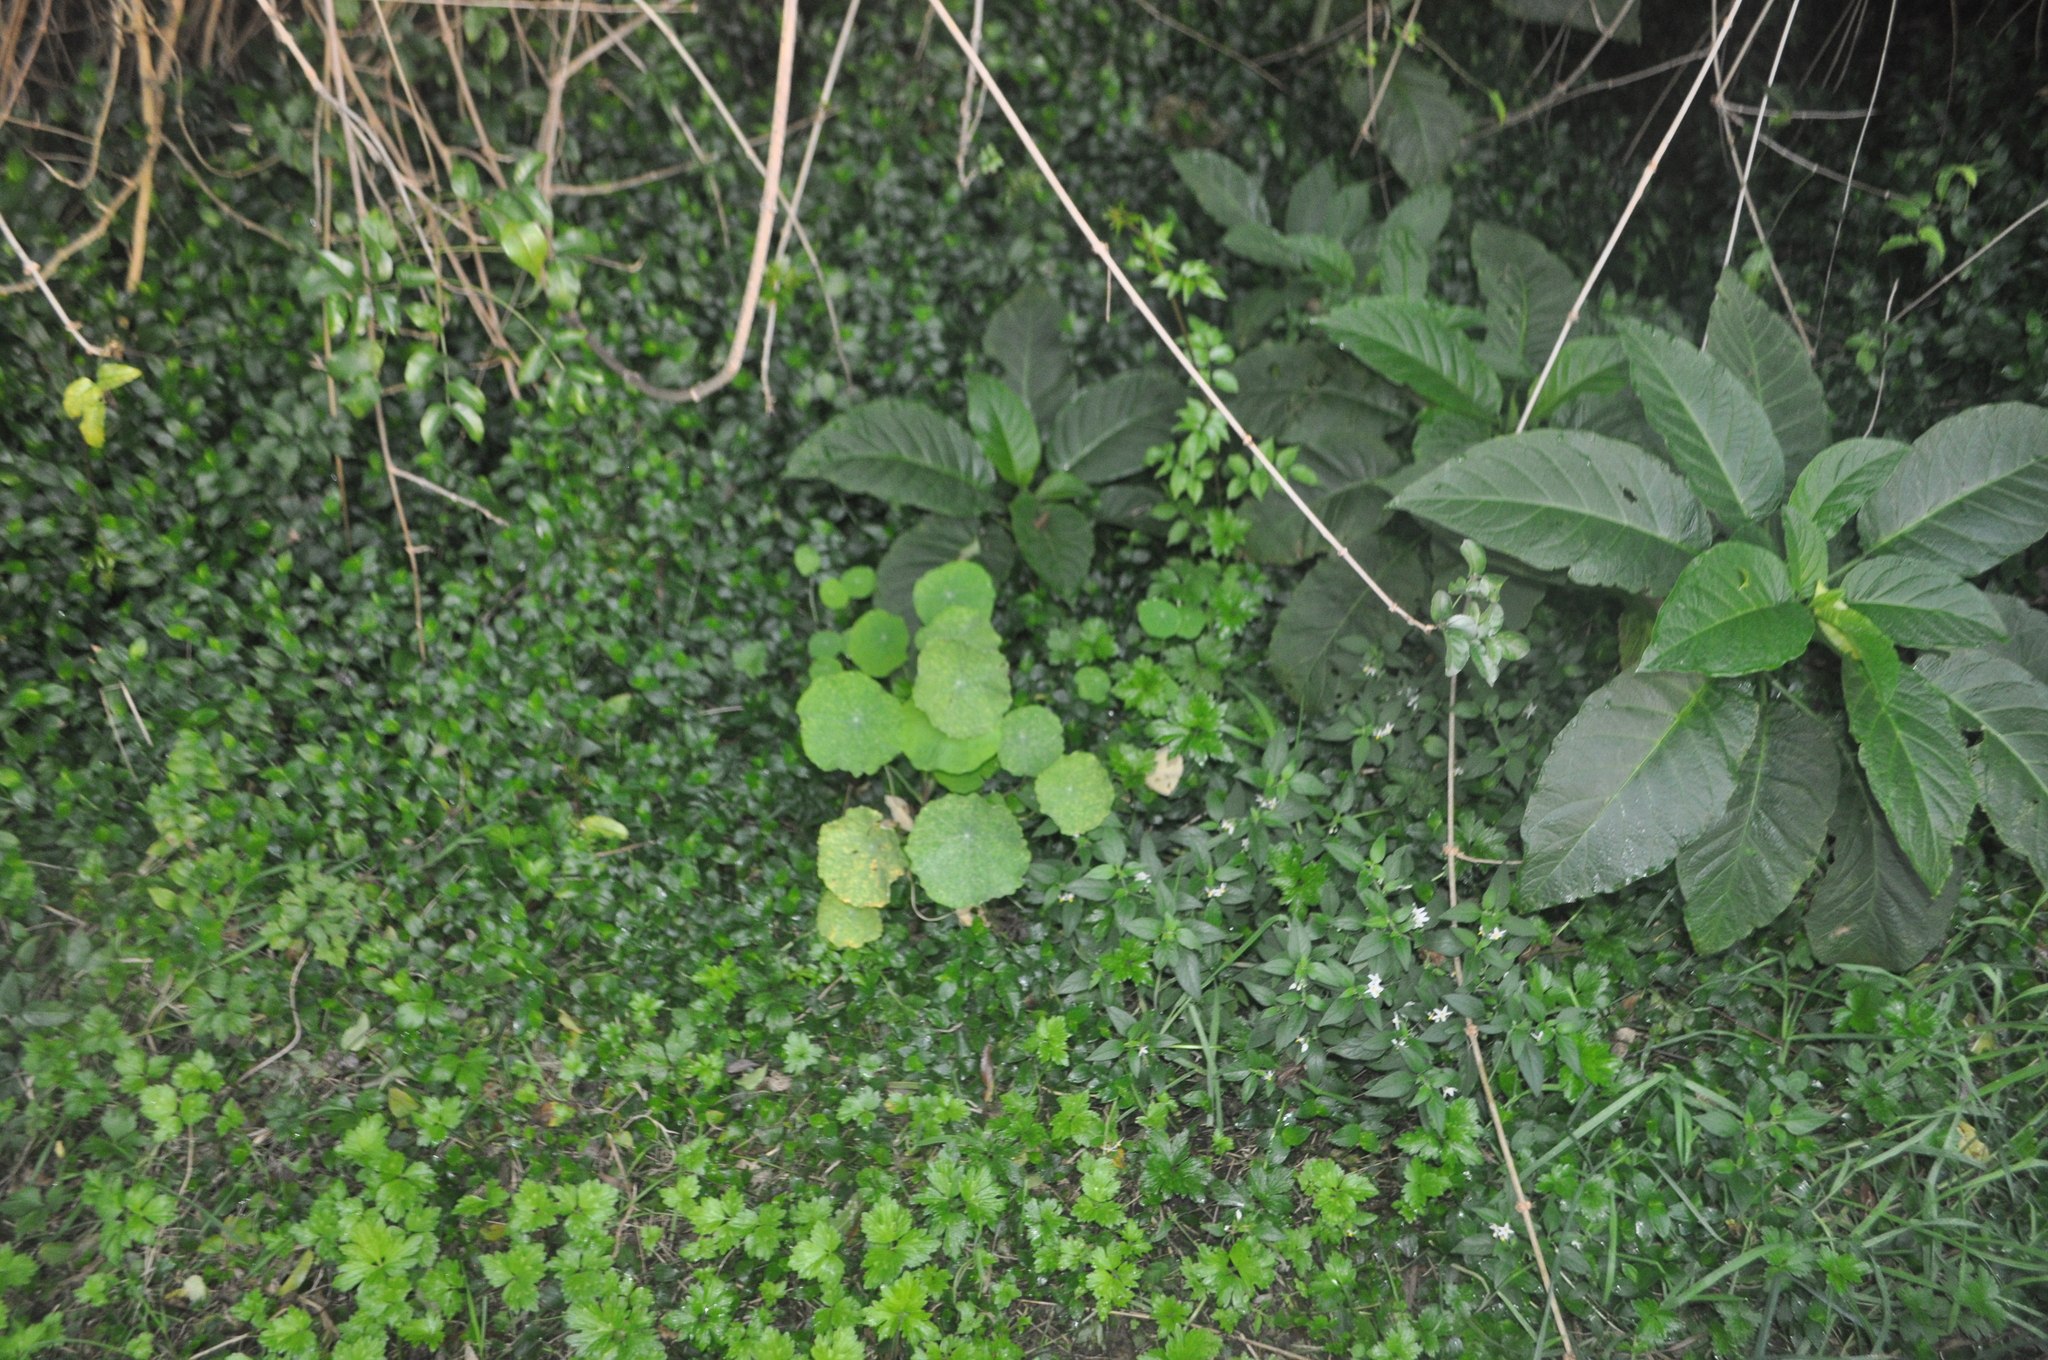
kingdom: Plantae
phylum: Tracheophyta
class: Magnoliopsida
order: Brassicales
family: Tropaeolaceae
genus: Tropaeolum
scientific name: Tropaeolum majus
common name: Nasturtium
